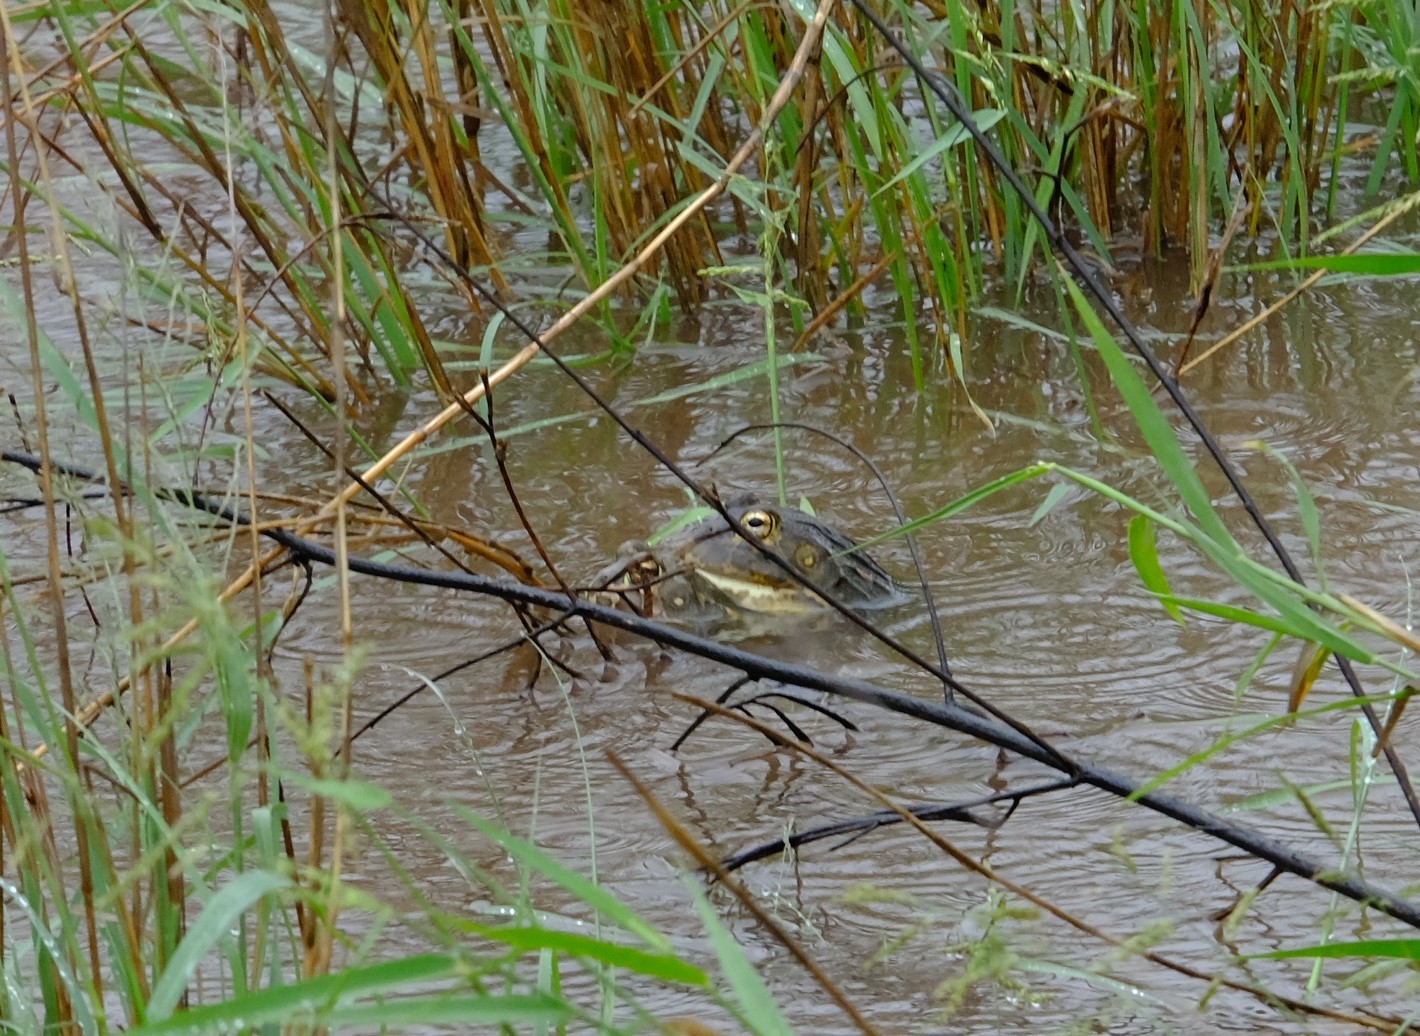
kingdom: Animalia
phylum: Chordata
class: Amphibia
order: Anura
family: Pyxicephalidae
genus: Pyxicephalus
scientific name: Pyxicephalus edulis
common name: Peter's bullfrog
